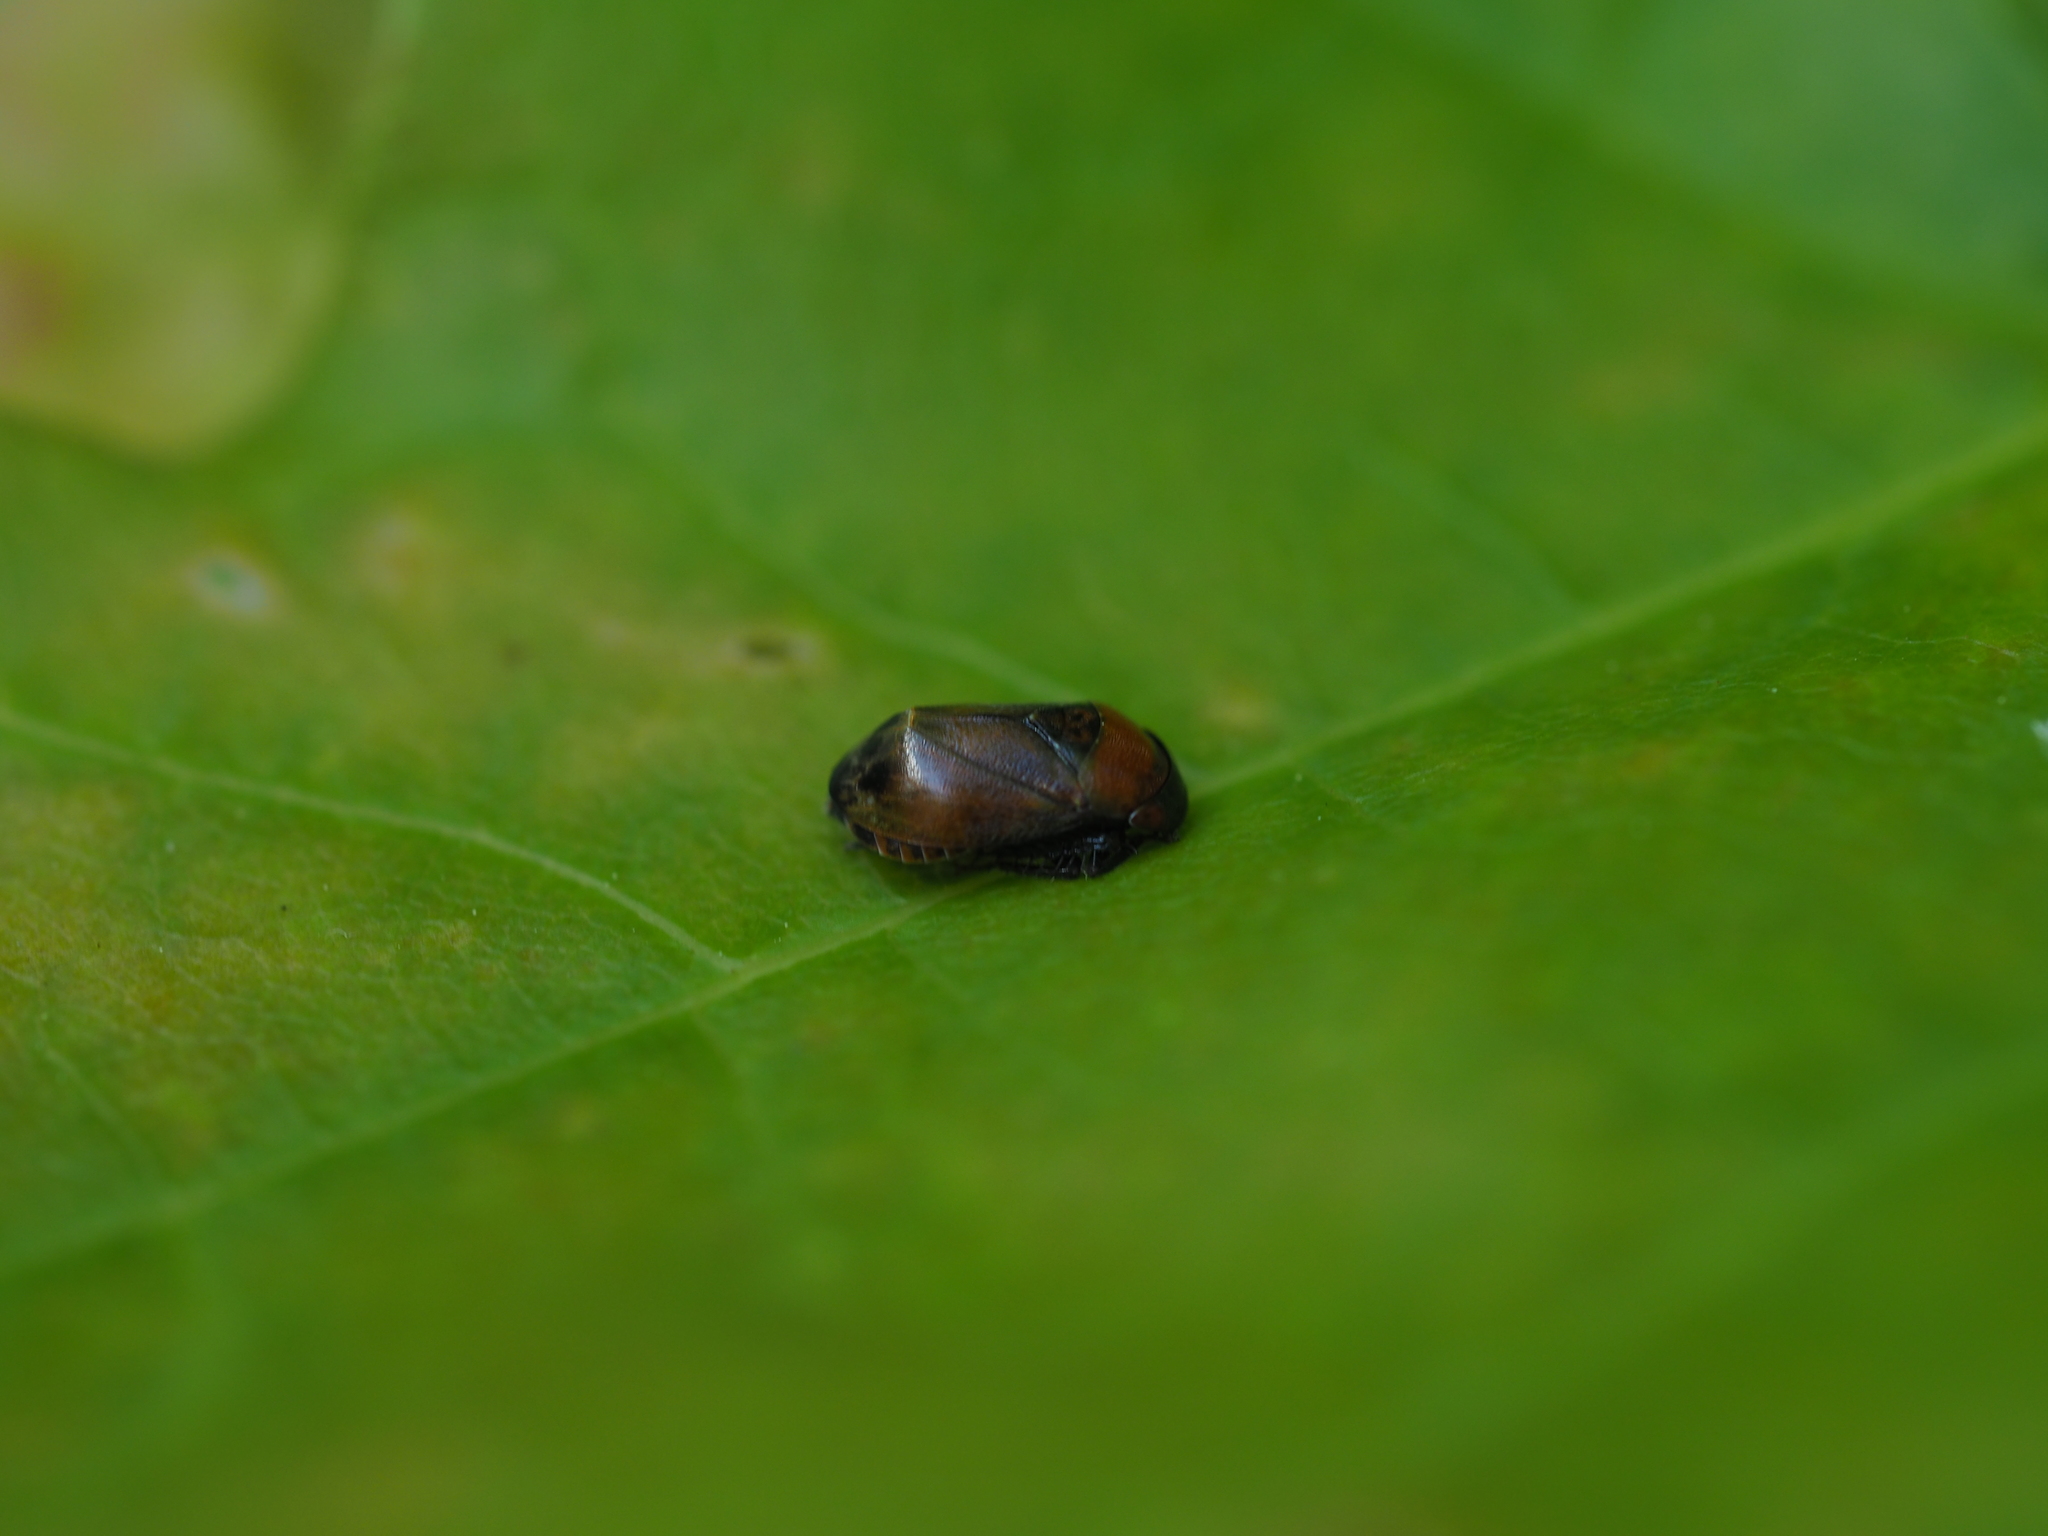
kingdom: Animalia
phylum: Arthropoda
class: Insecta
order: Hemiptera
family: Cicadellidae
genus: Penthimia
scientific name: Penthimia nigra
